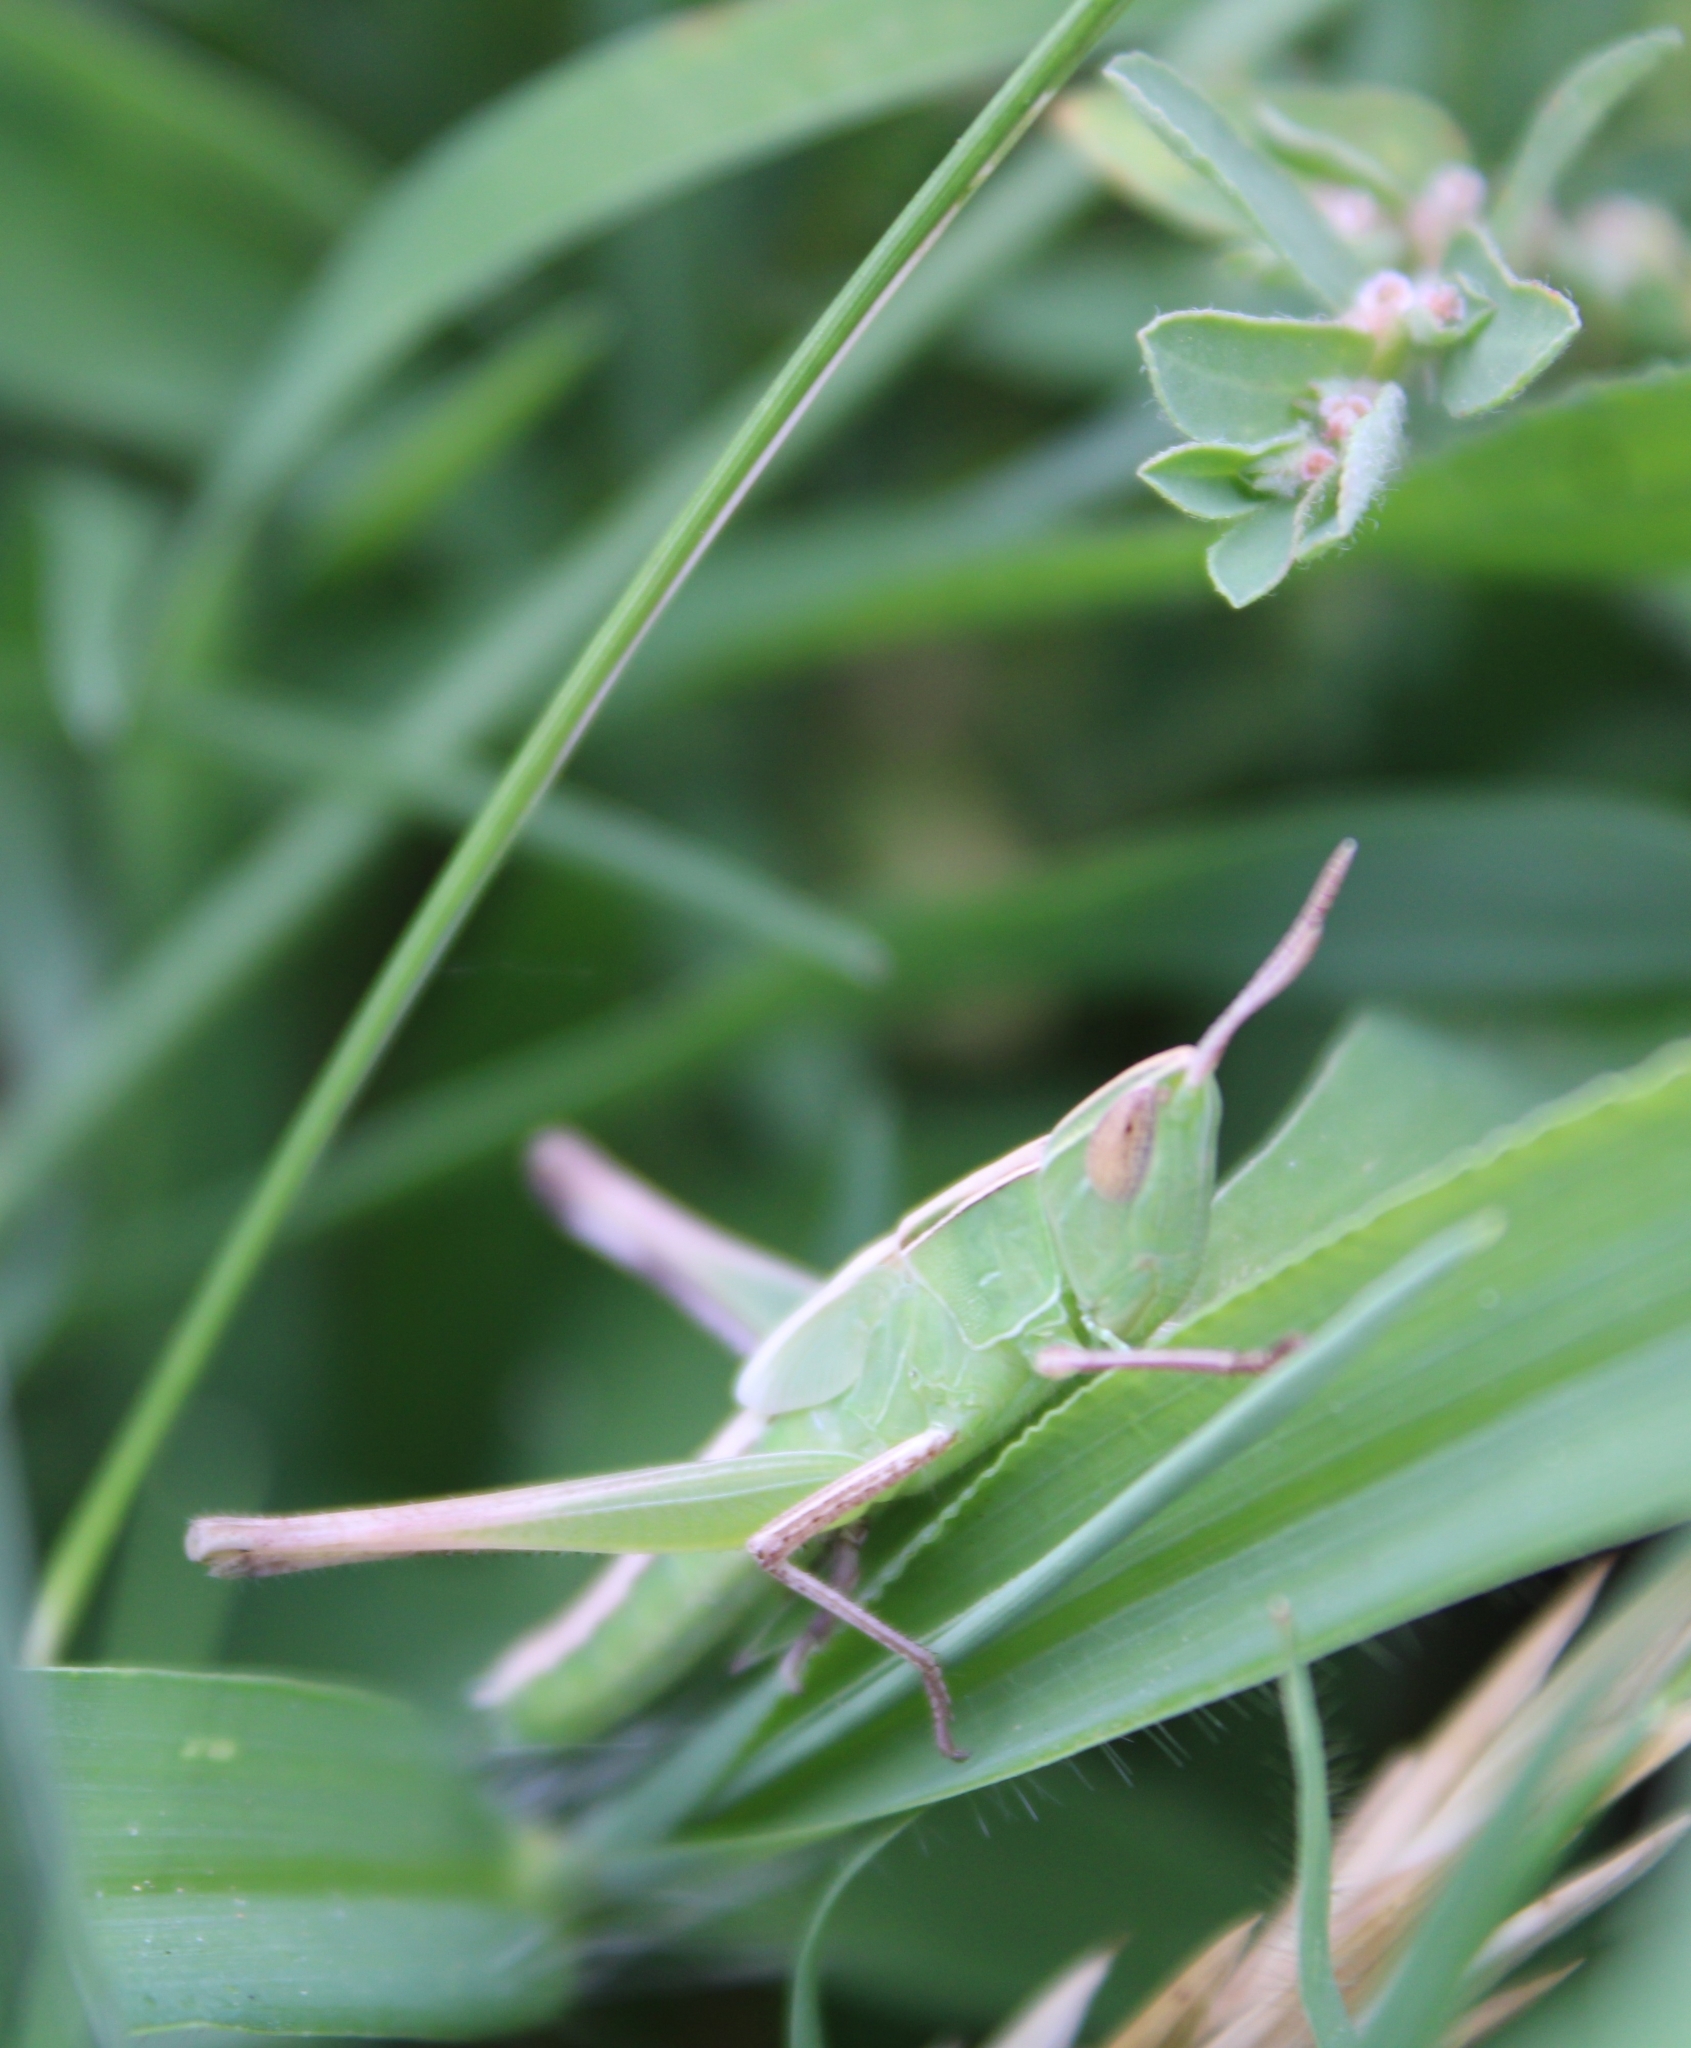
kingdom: Animalia
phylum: Arthropoda
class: Insecta
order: Orthoptera
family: Acrididae
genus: Syrbula
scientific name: Syrbula admirabilis
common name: Handsome grasshopper
